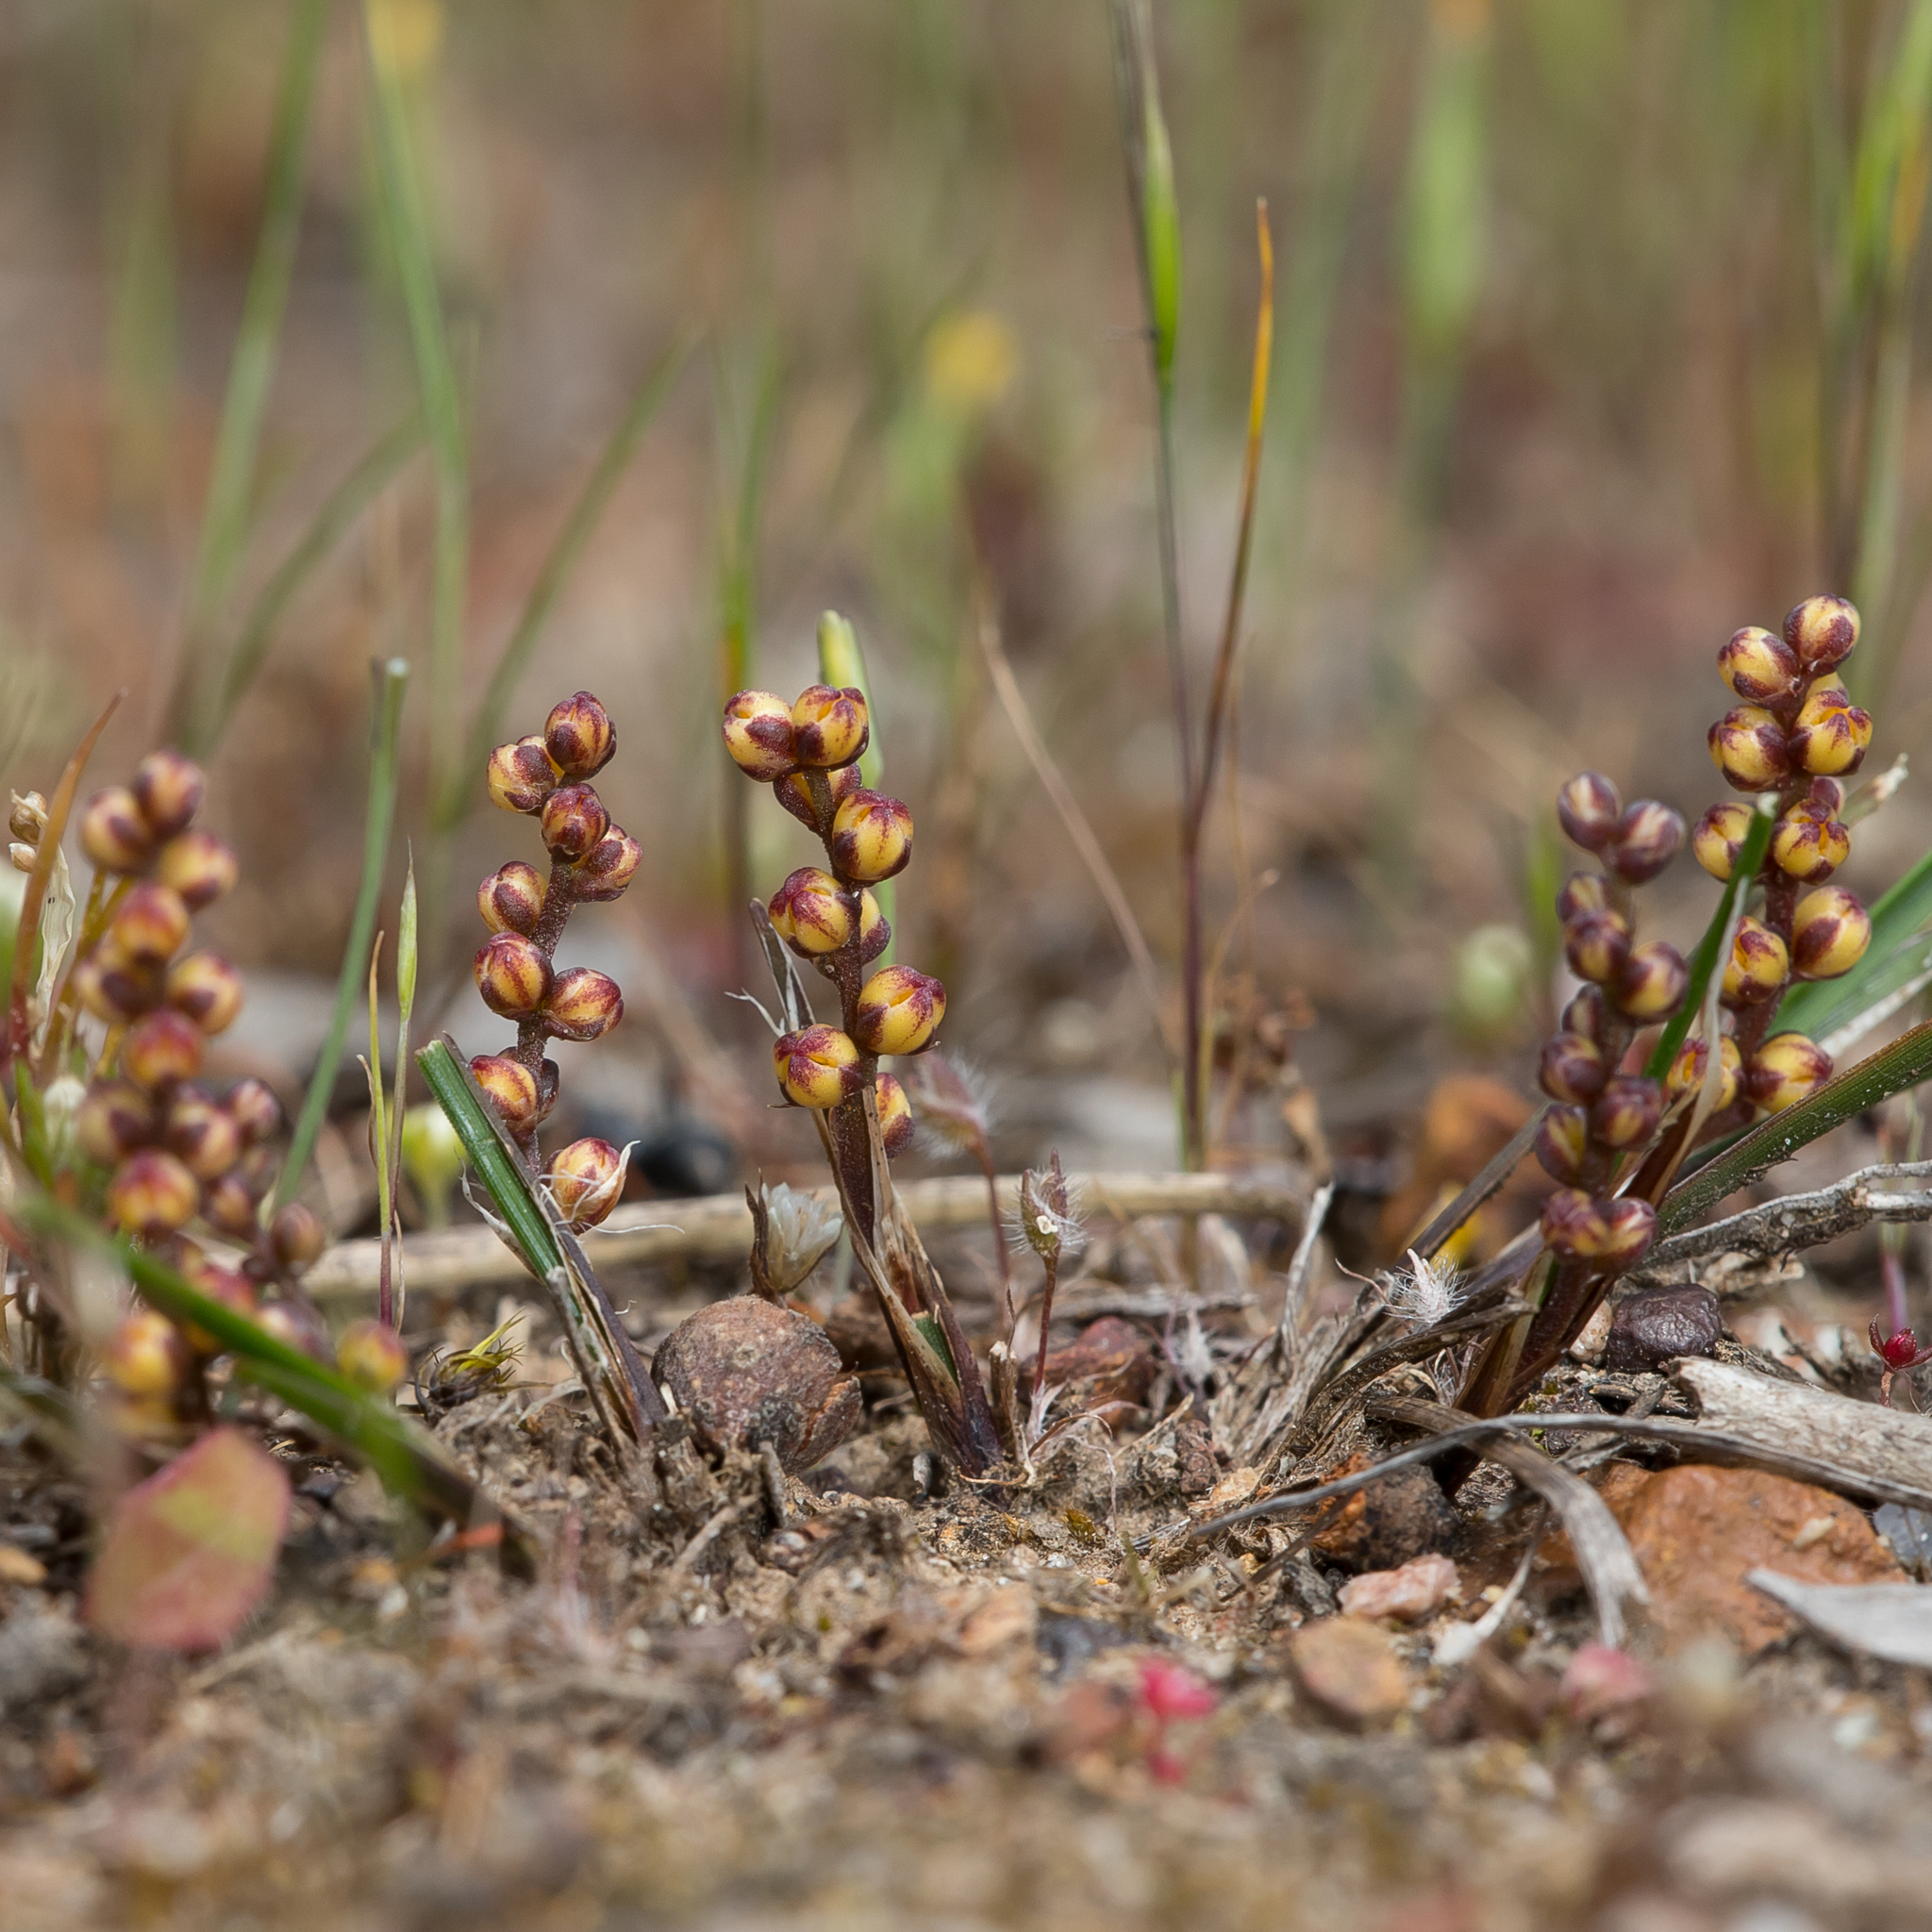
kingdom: Plantae
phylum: Tracheophyta
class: Liliopsida
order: Asparagales
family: Asparagaceae
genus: Lomandra
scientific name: Lomandra sororia
